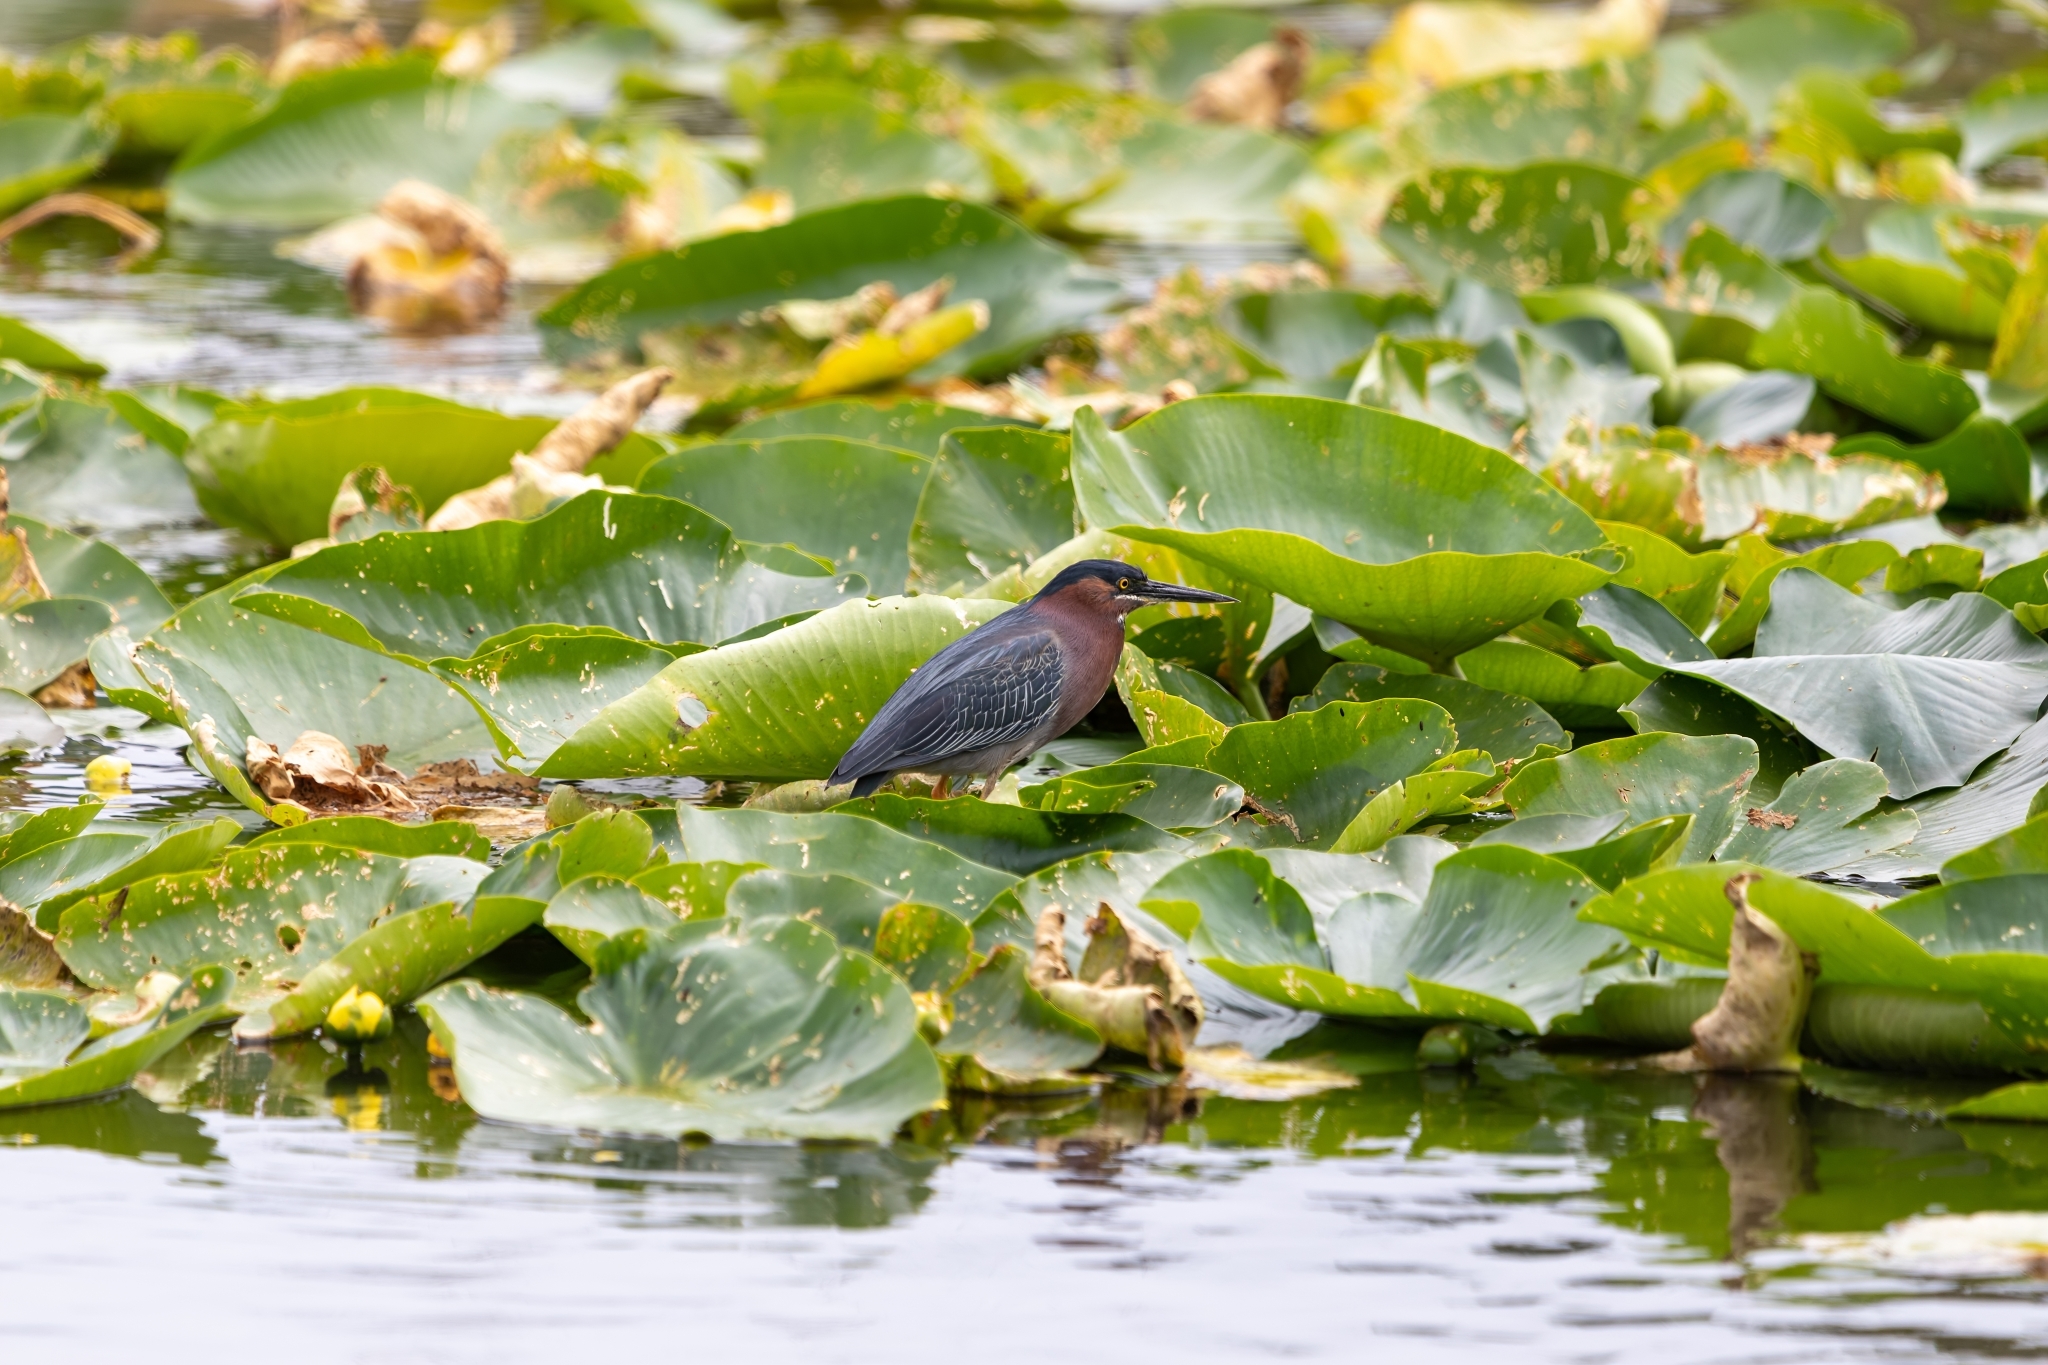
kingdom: Animalia
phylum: Chordata
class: Aves
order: Pelecaniformes
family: Ardeidae
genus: Butorides
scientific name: Butorides virescens
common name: Green heron
